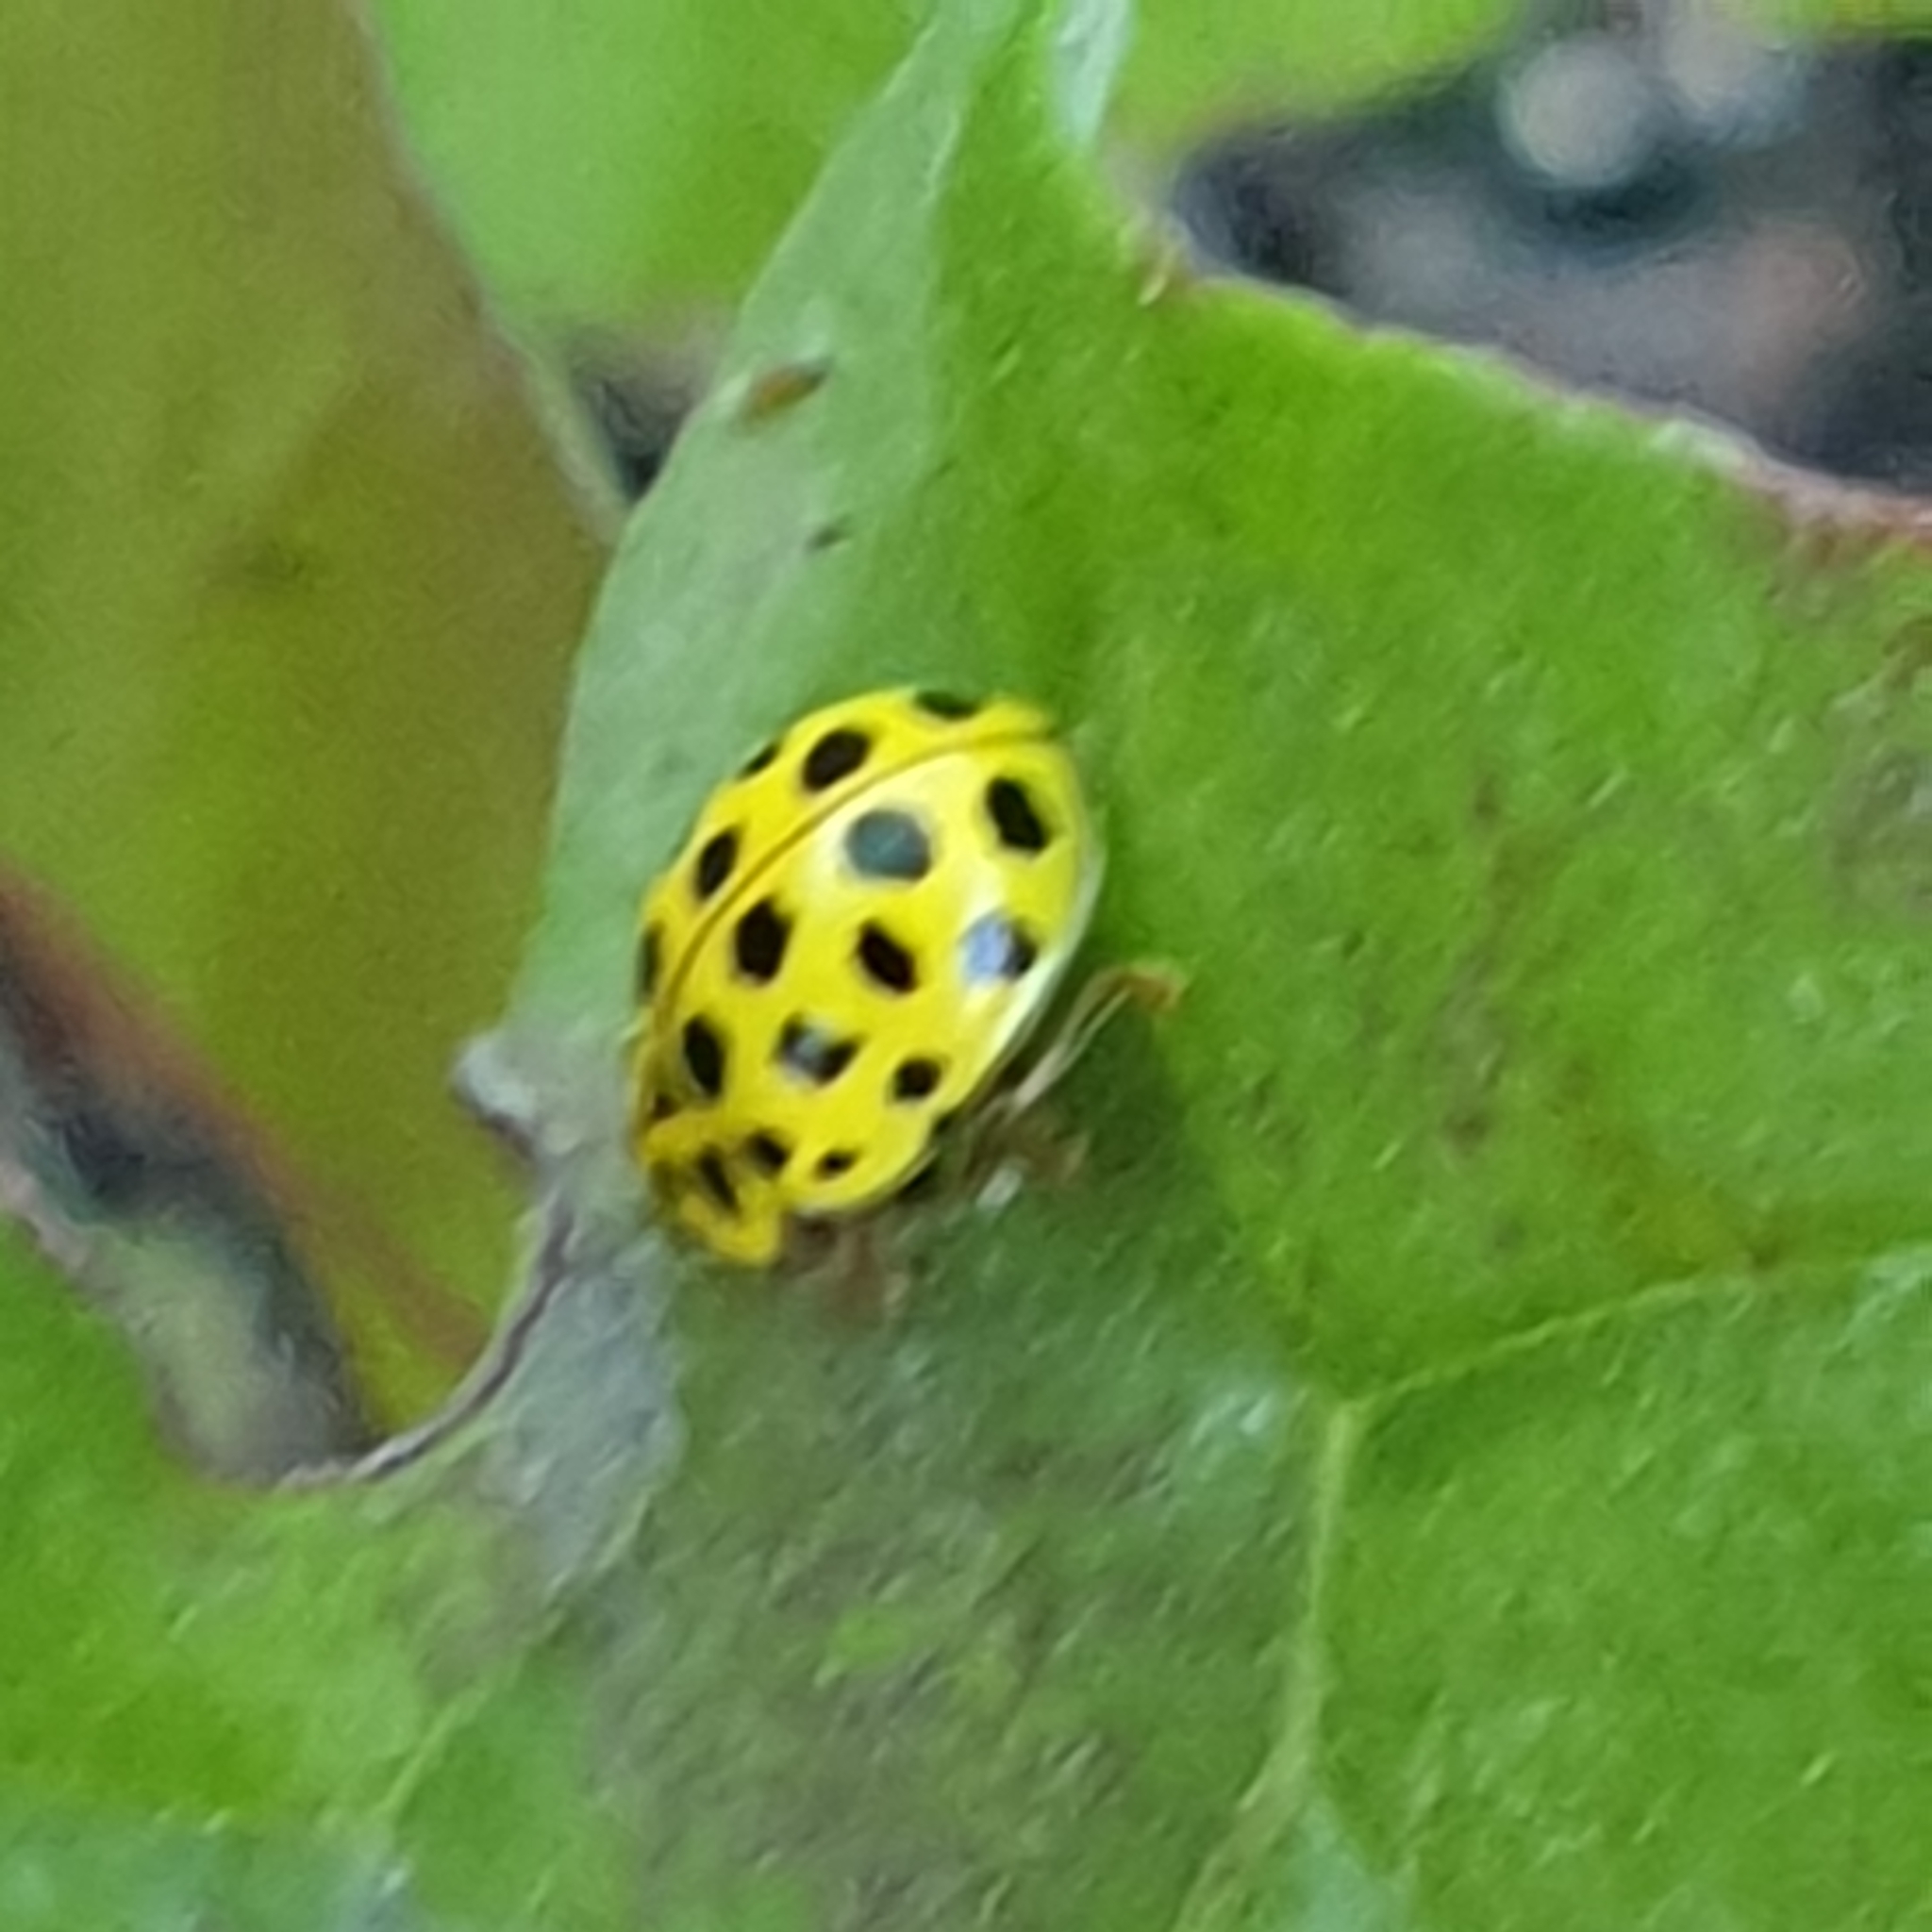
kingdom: Animalia
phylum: Arthropoda
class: Insecta
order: Coleoptera
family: Coccinellidae
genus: Psyllobora
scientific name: Psyllobora vigintiduopunctata
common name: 22-spot ladybird
